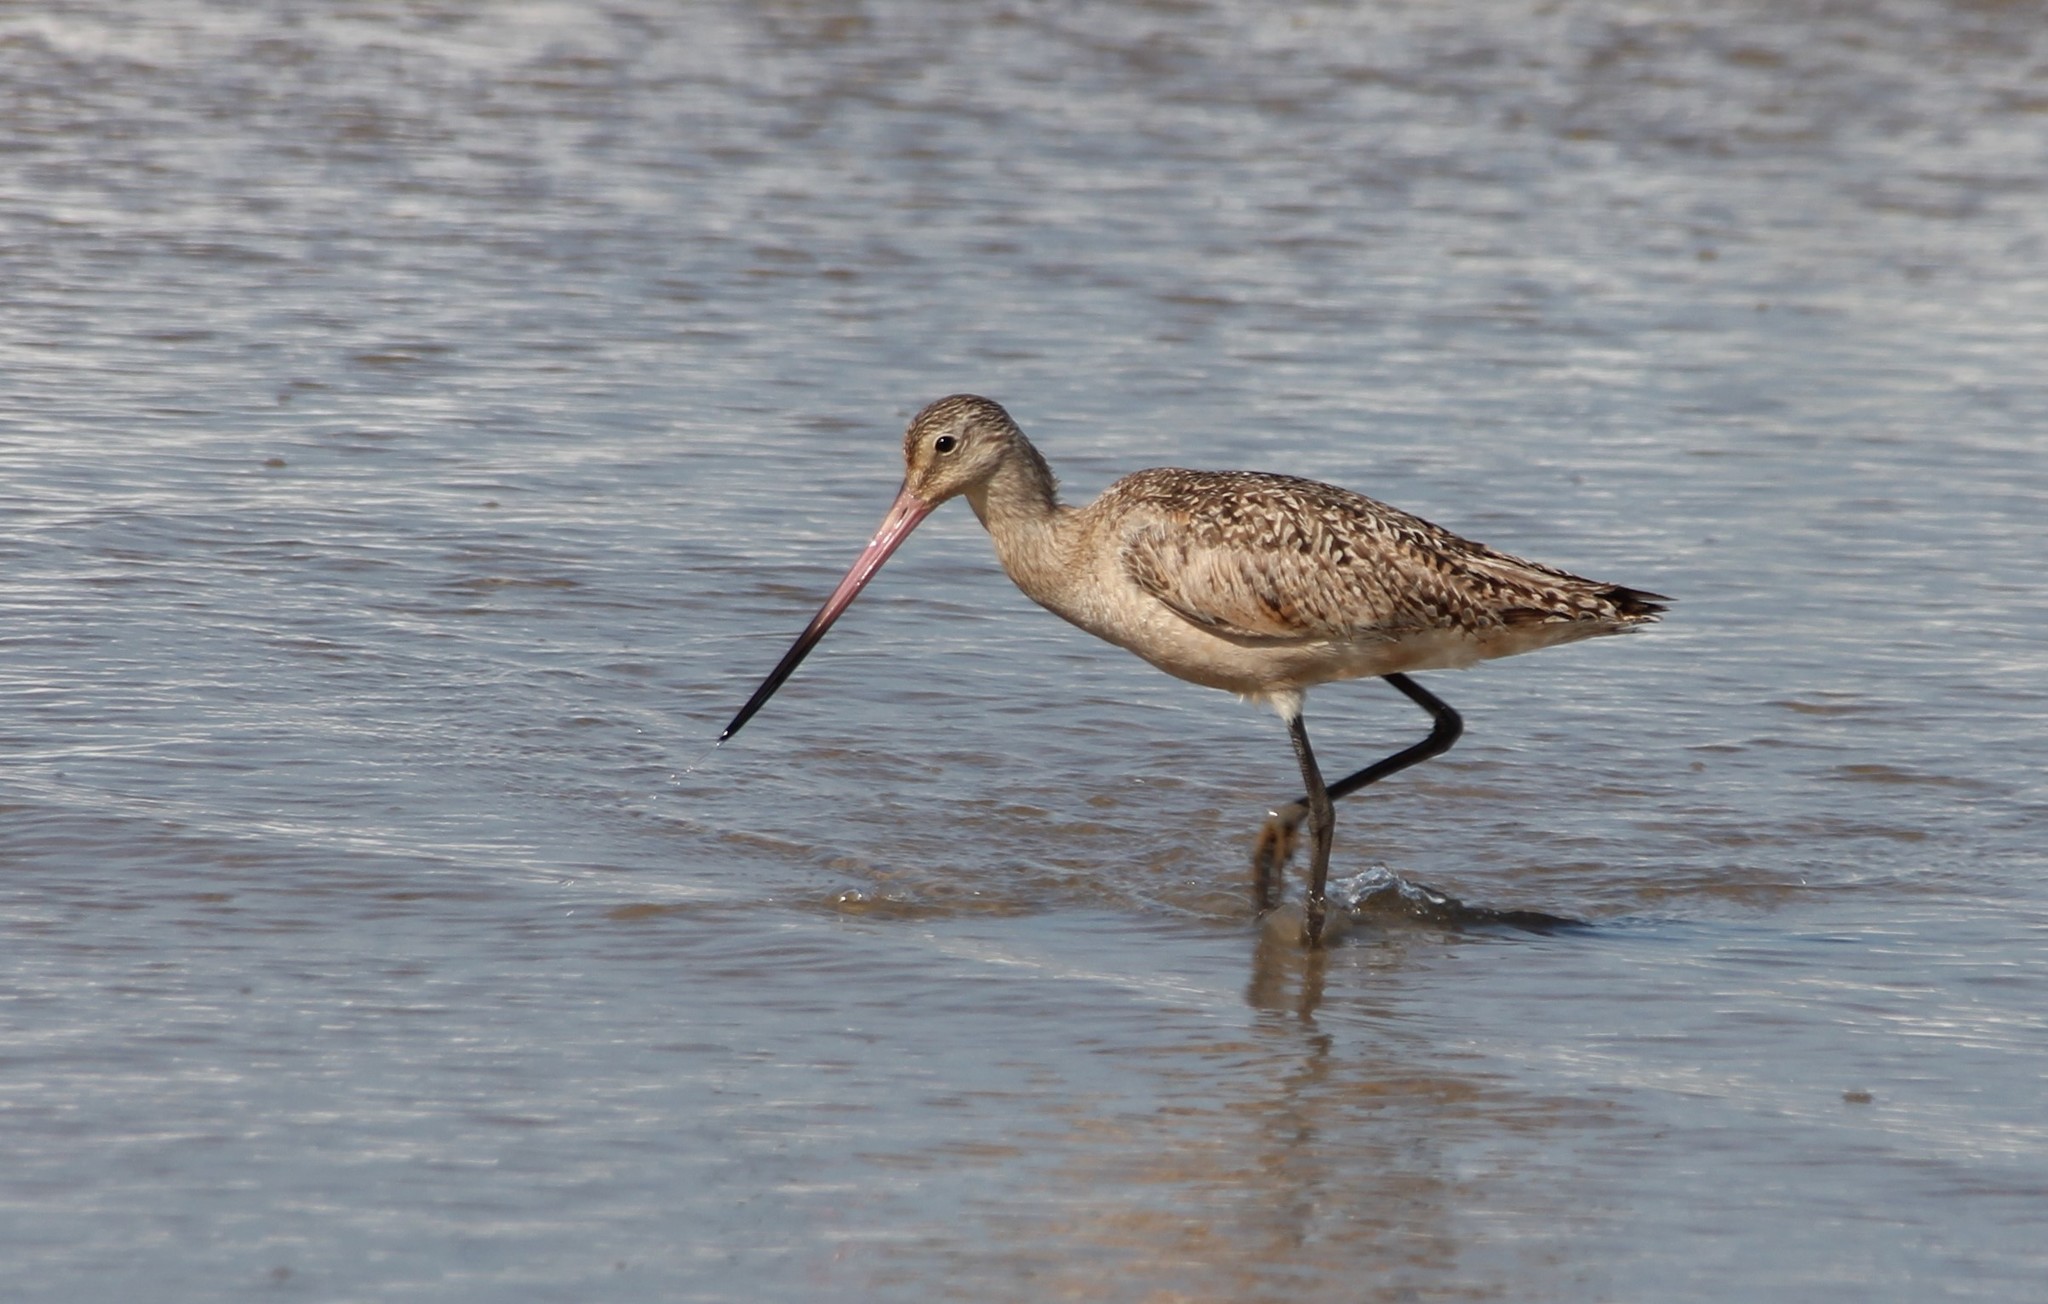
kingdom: Animalia
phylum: Chordata
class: Aves
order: Charadriiformes
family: Scolopacidae
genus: Limosa
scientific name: Limosa fedoa
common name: Marbled godwit
